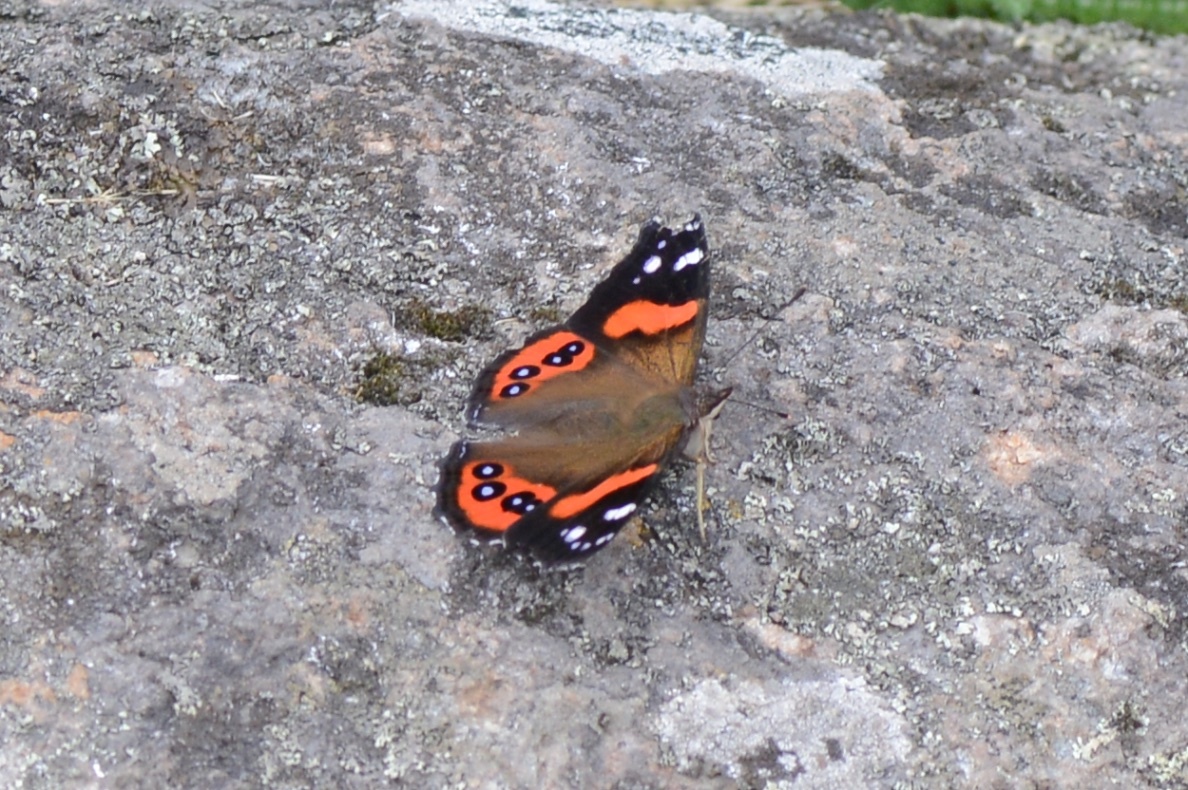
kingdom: Animalia
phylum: Arthropoda
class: Insecta
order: Lepidoptera
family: Nymphalidae
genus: Vanessa
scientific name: Vanessa gonerilla
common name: New zealand red admiral
